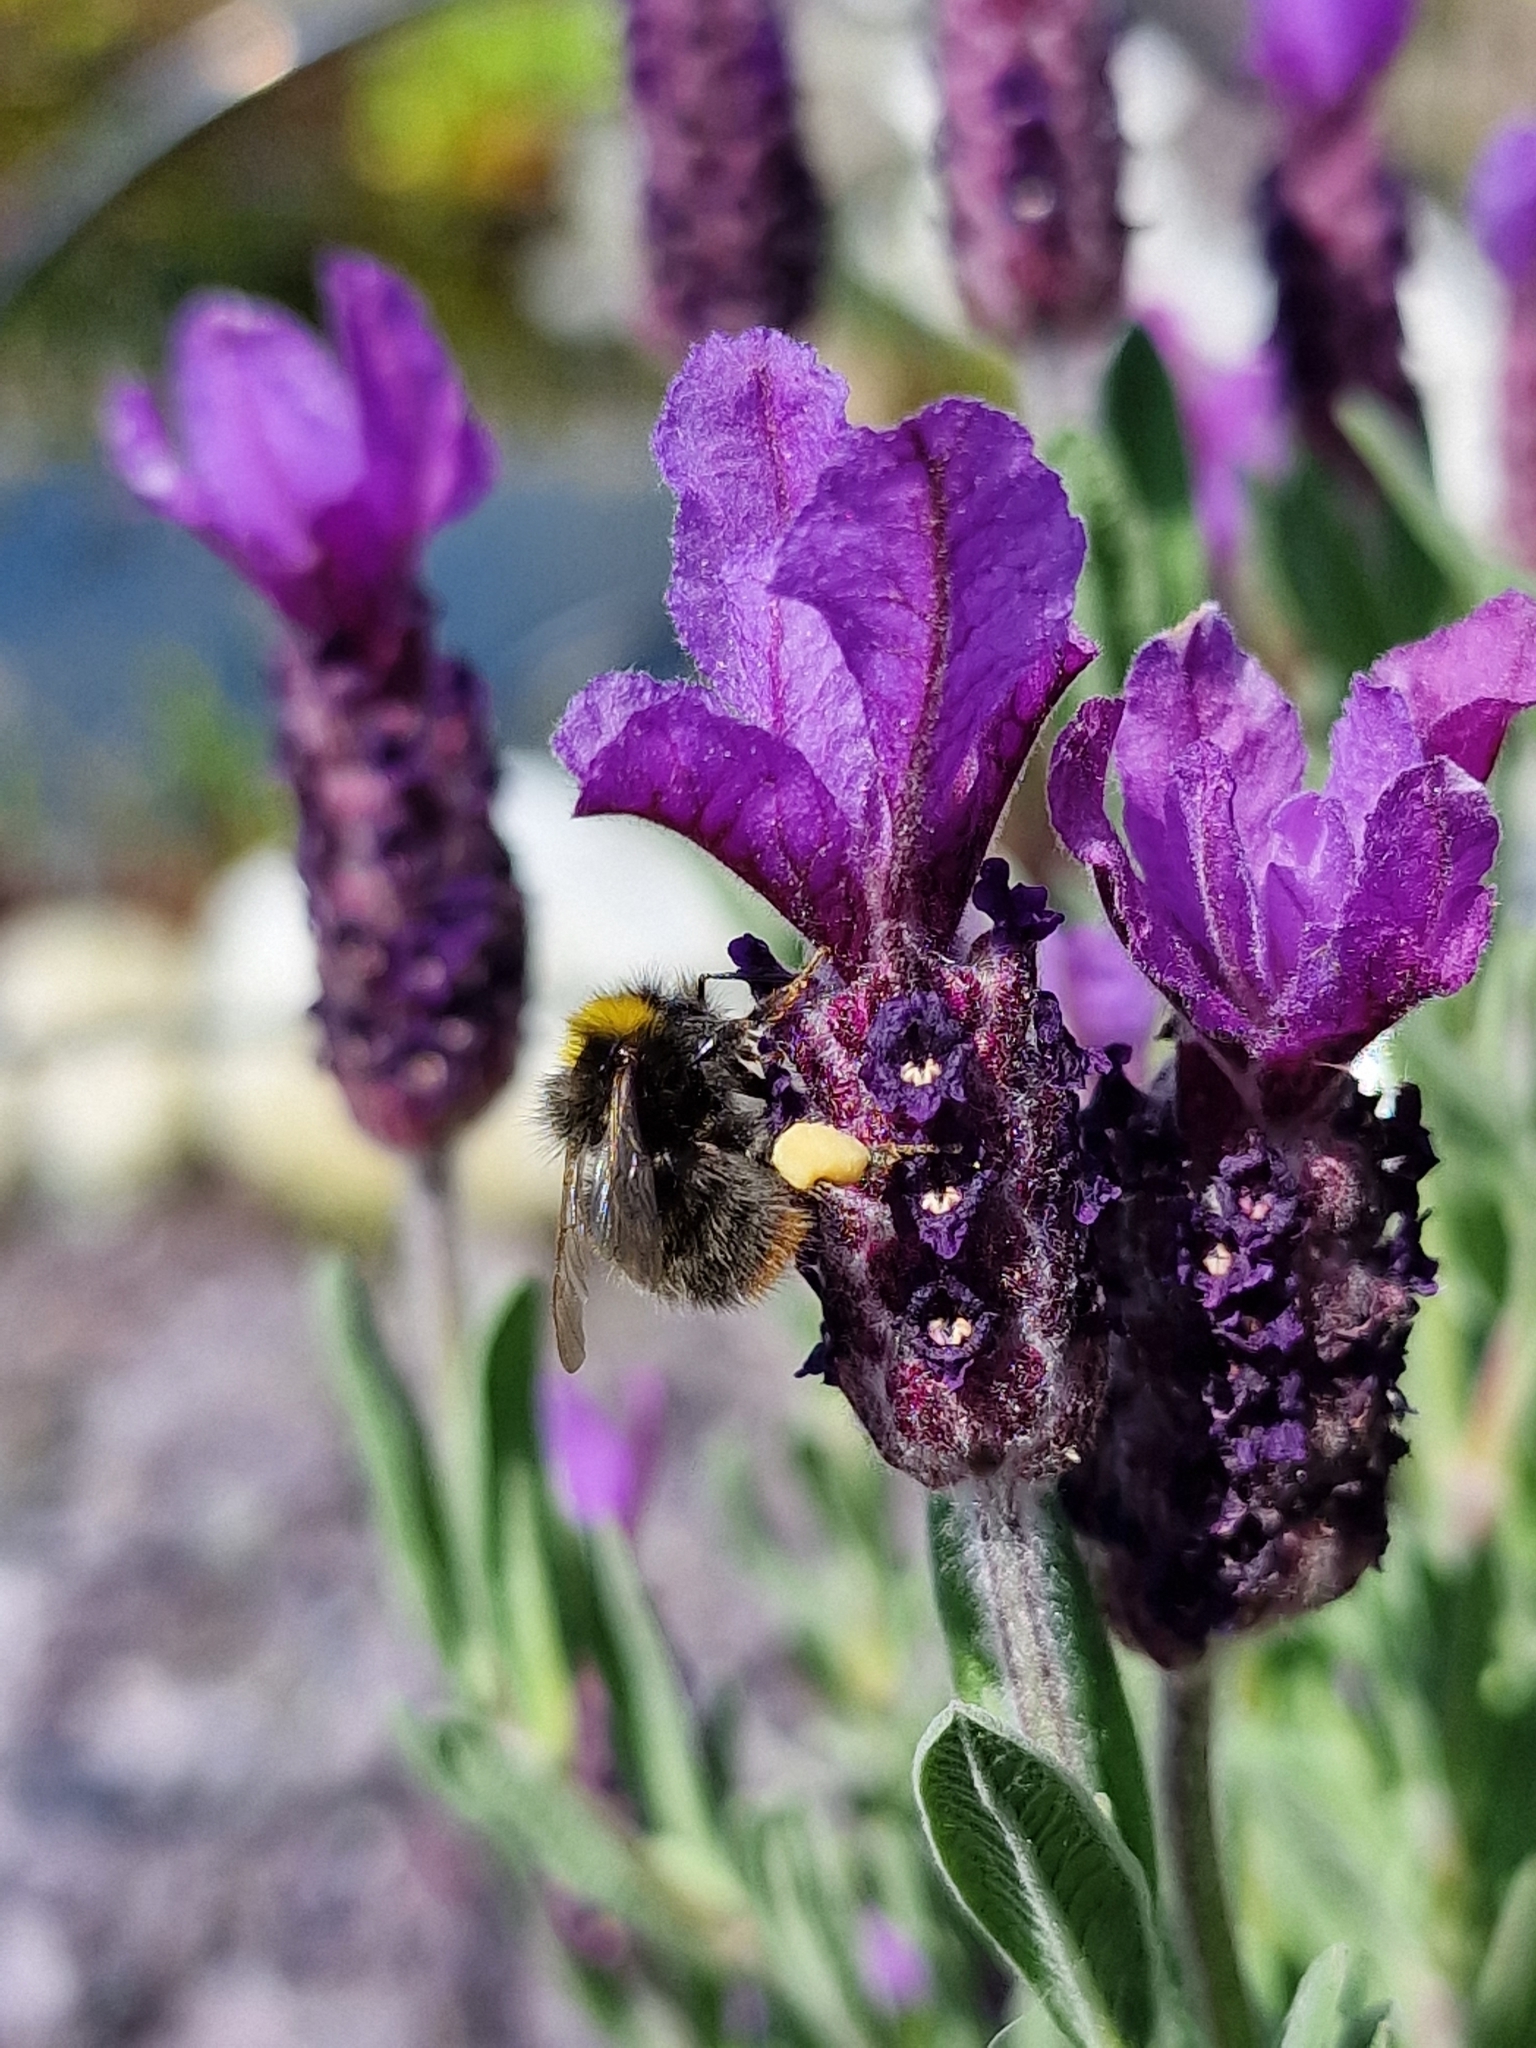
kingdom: Animalia
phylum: Arthropoda
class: Insecta
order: Hymenoptera
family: Apidae
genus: Bombus
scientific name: Bombus pratorum
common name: Early humble-bee
